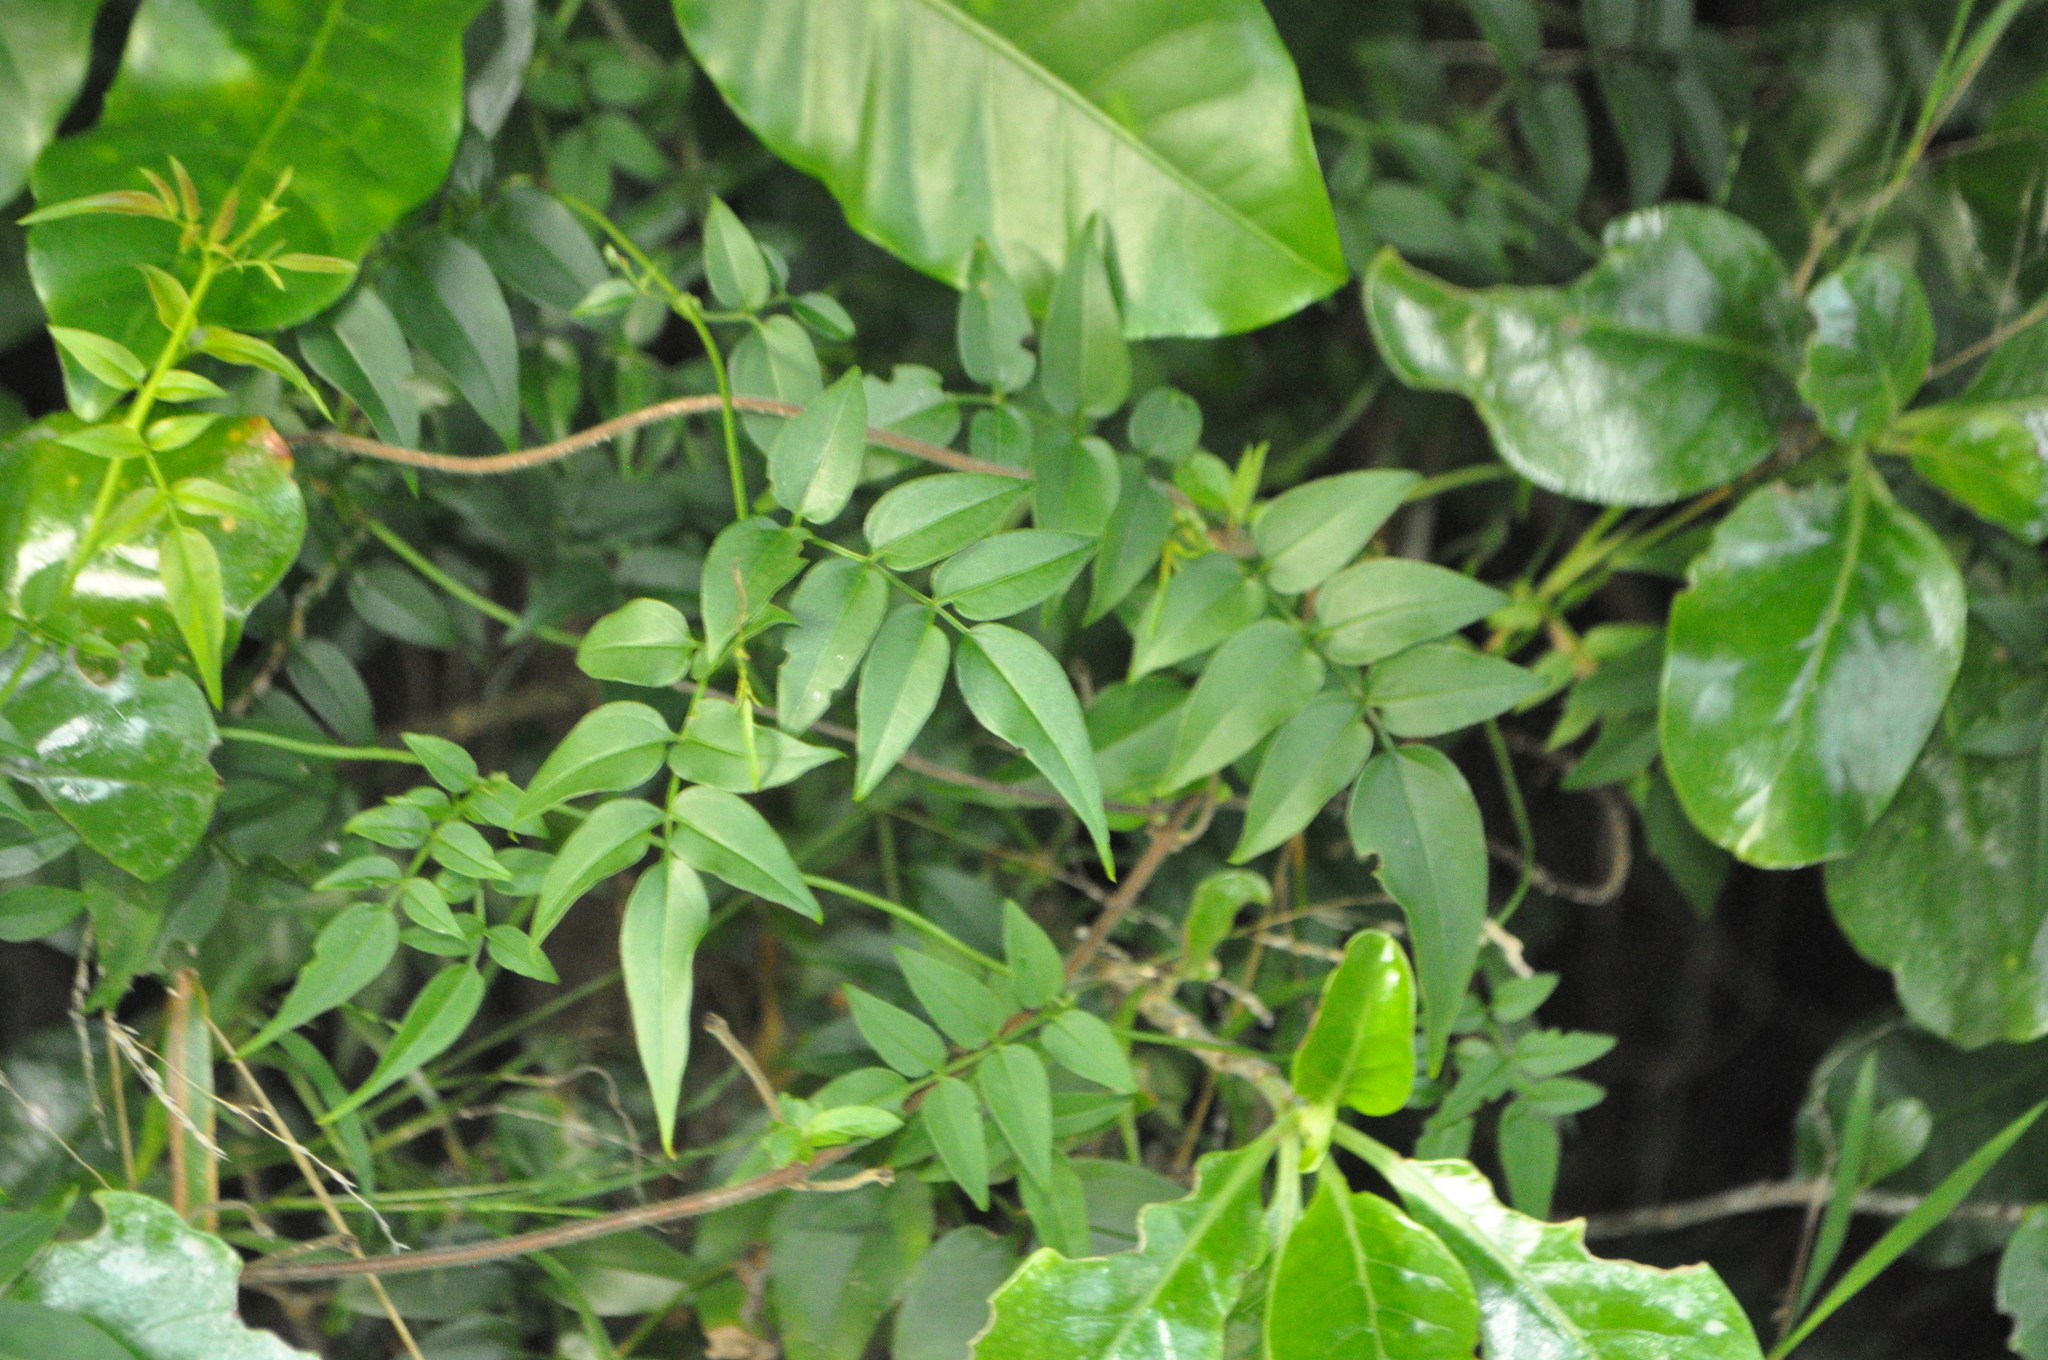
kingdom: Plantae
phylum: Tracheophyta
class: Magnoliopsida
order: Lamiales
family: Oleaceae
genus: Jasminum
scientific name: Jasminum polyanthum
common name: Pink jasmine
